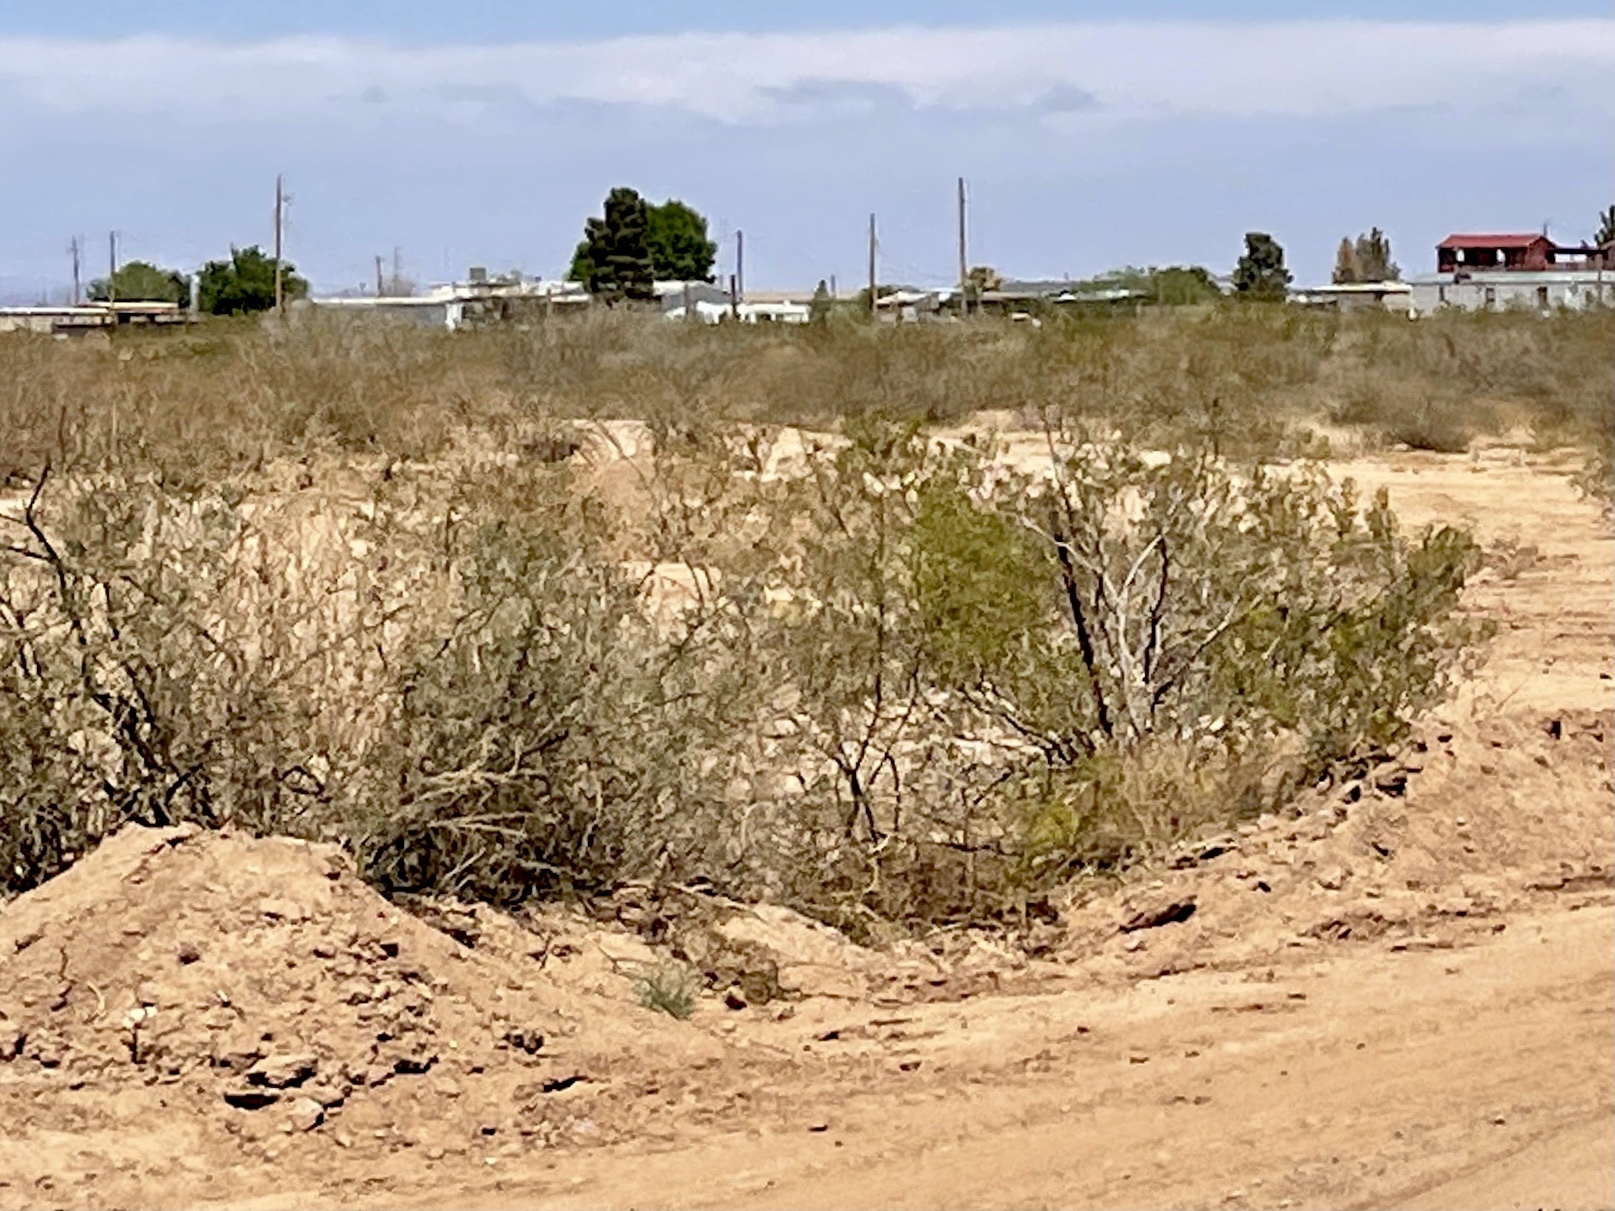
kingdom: Plantae
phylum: Tracheophyta
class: Magnoliopsida
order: Zygophyllales
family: Zygophyllaceae
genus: Larrea
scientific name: Larrea tridentata
